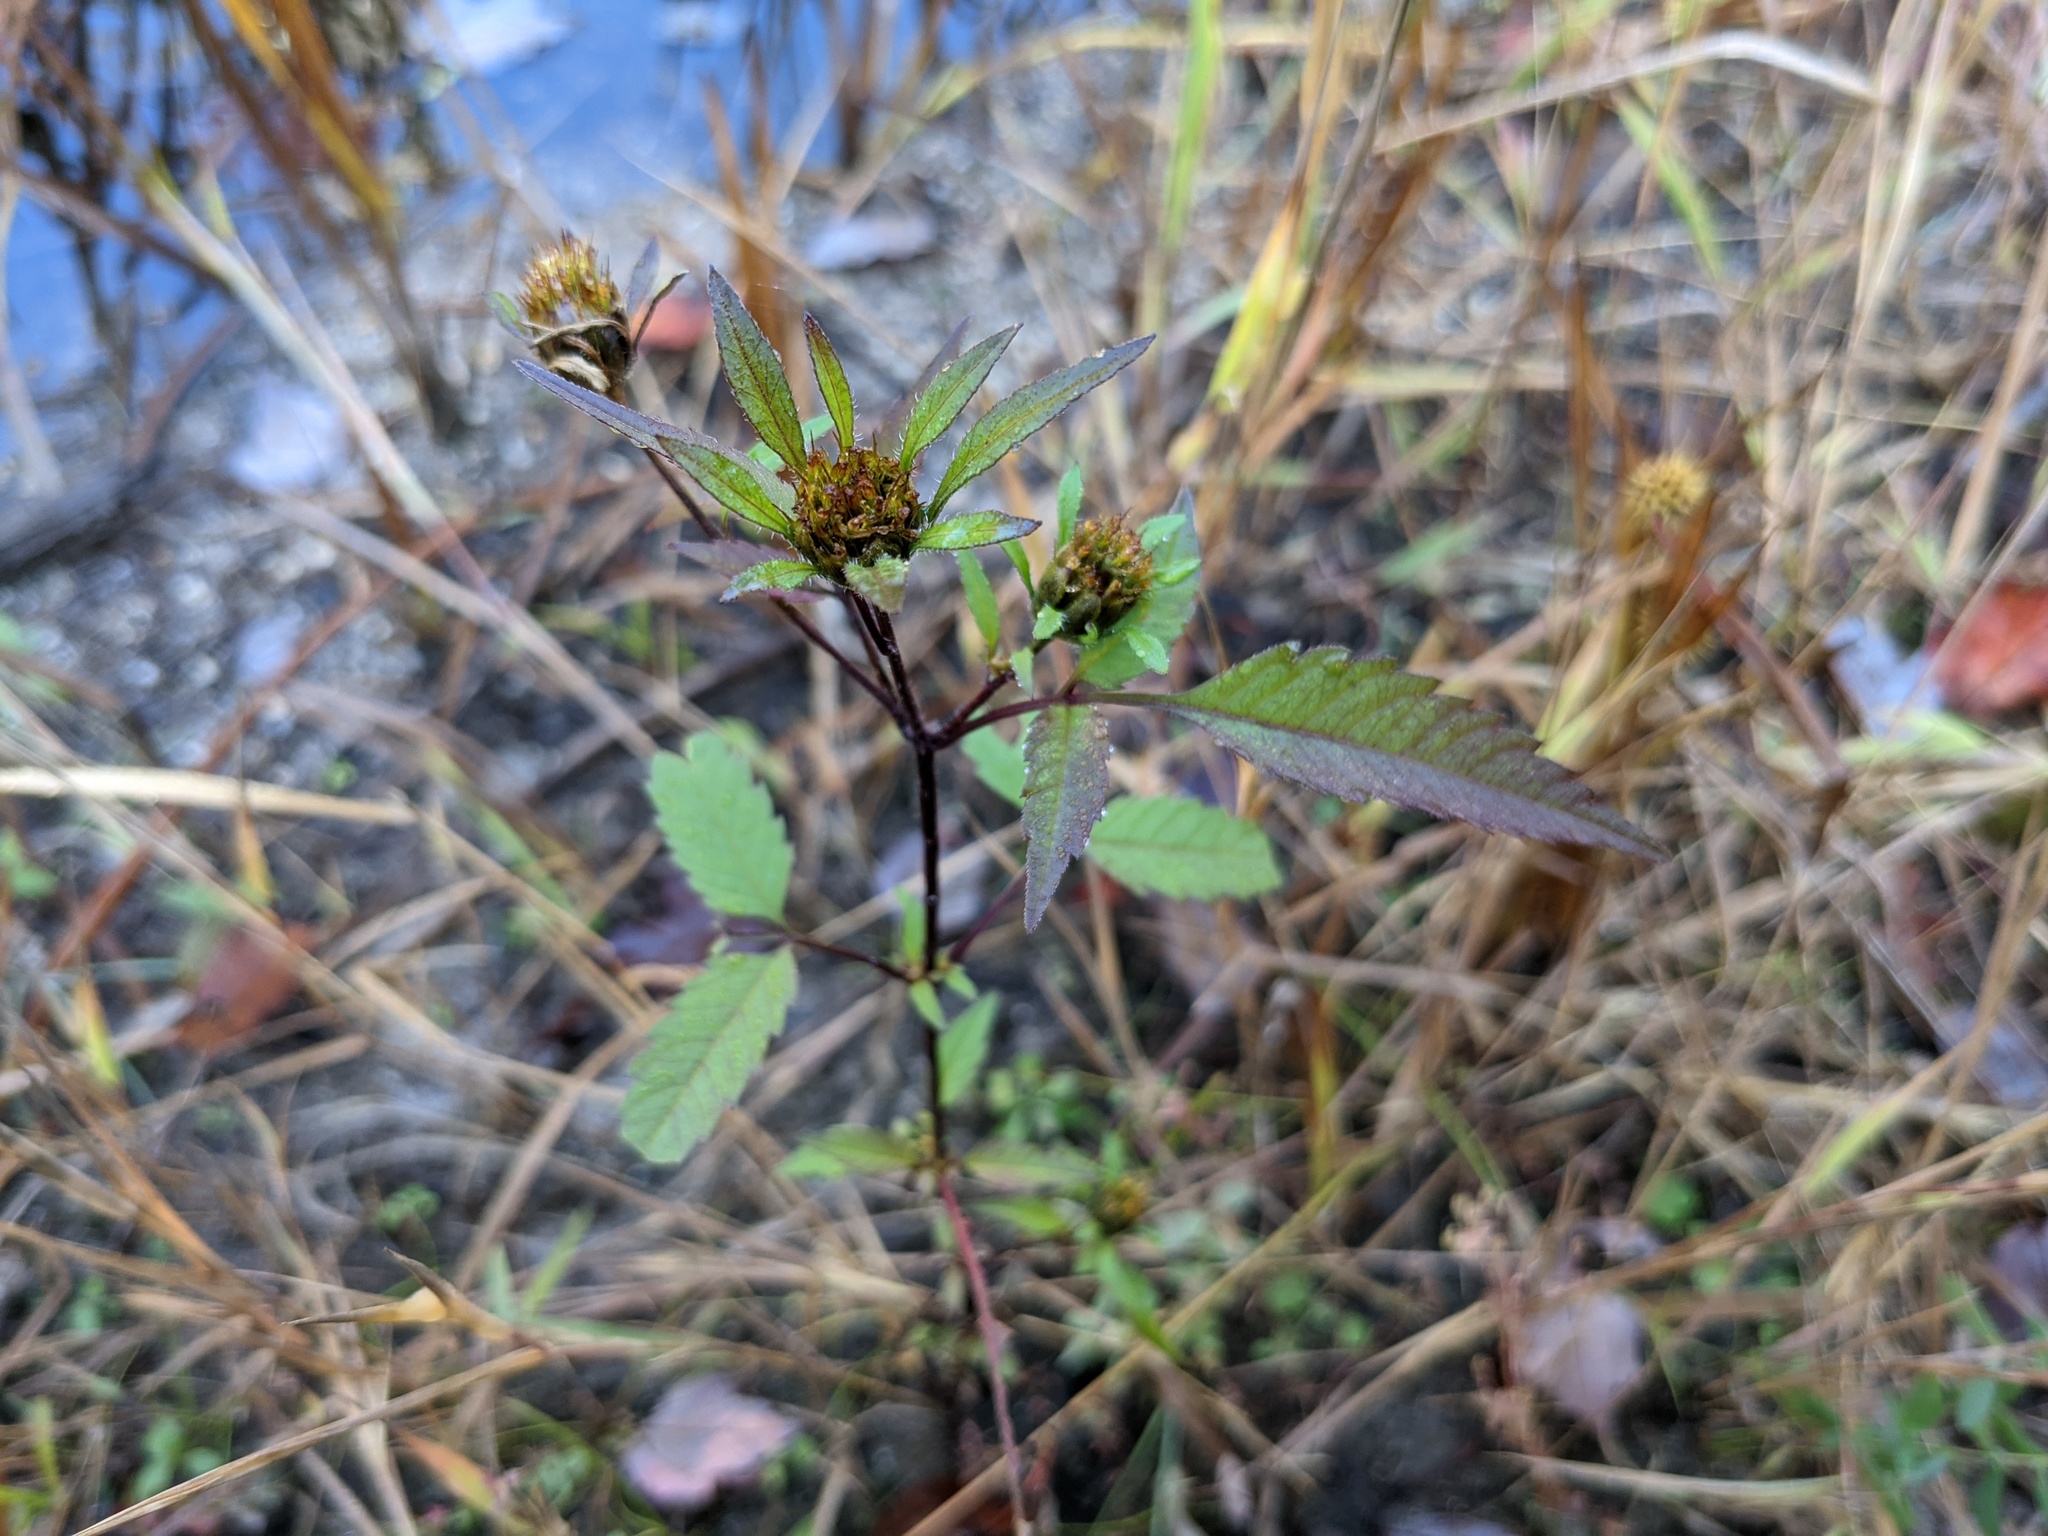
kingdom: Plantae
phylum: Tracheophyta
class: Magnoliopsida
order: Asterales
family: Asteraceae
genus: Bidens
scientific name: Bidens frondosa
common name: Beggarticks
